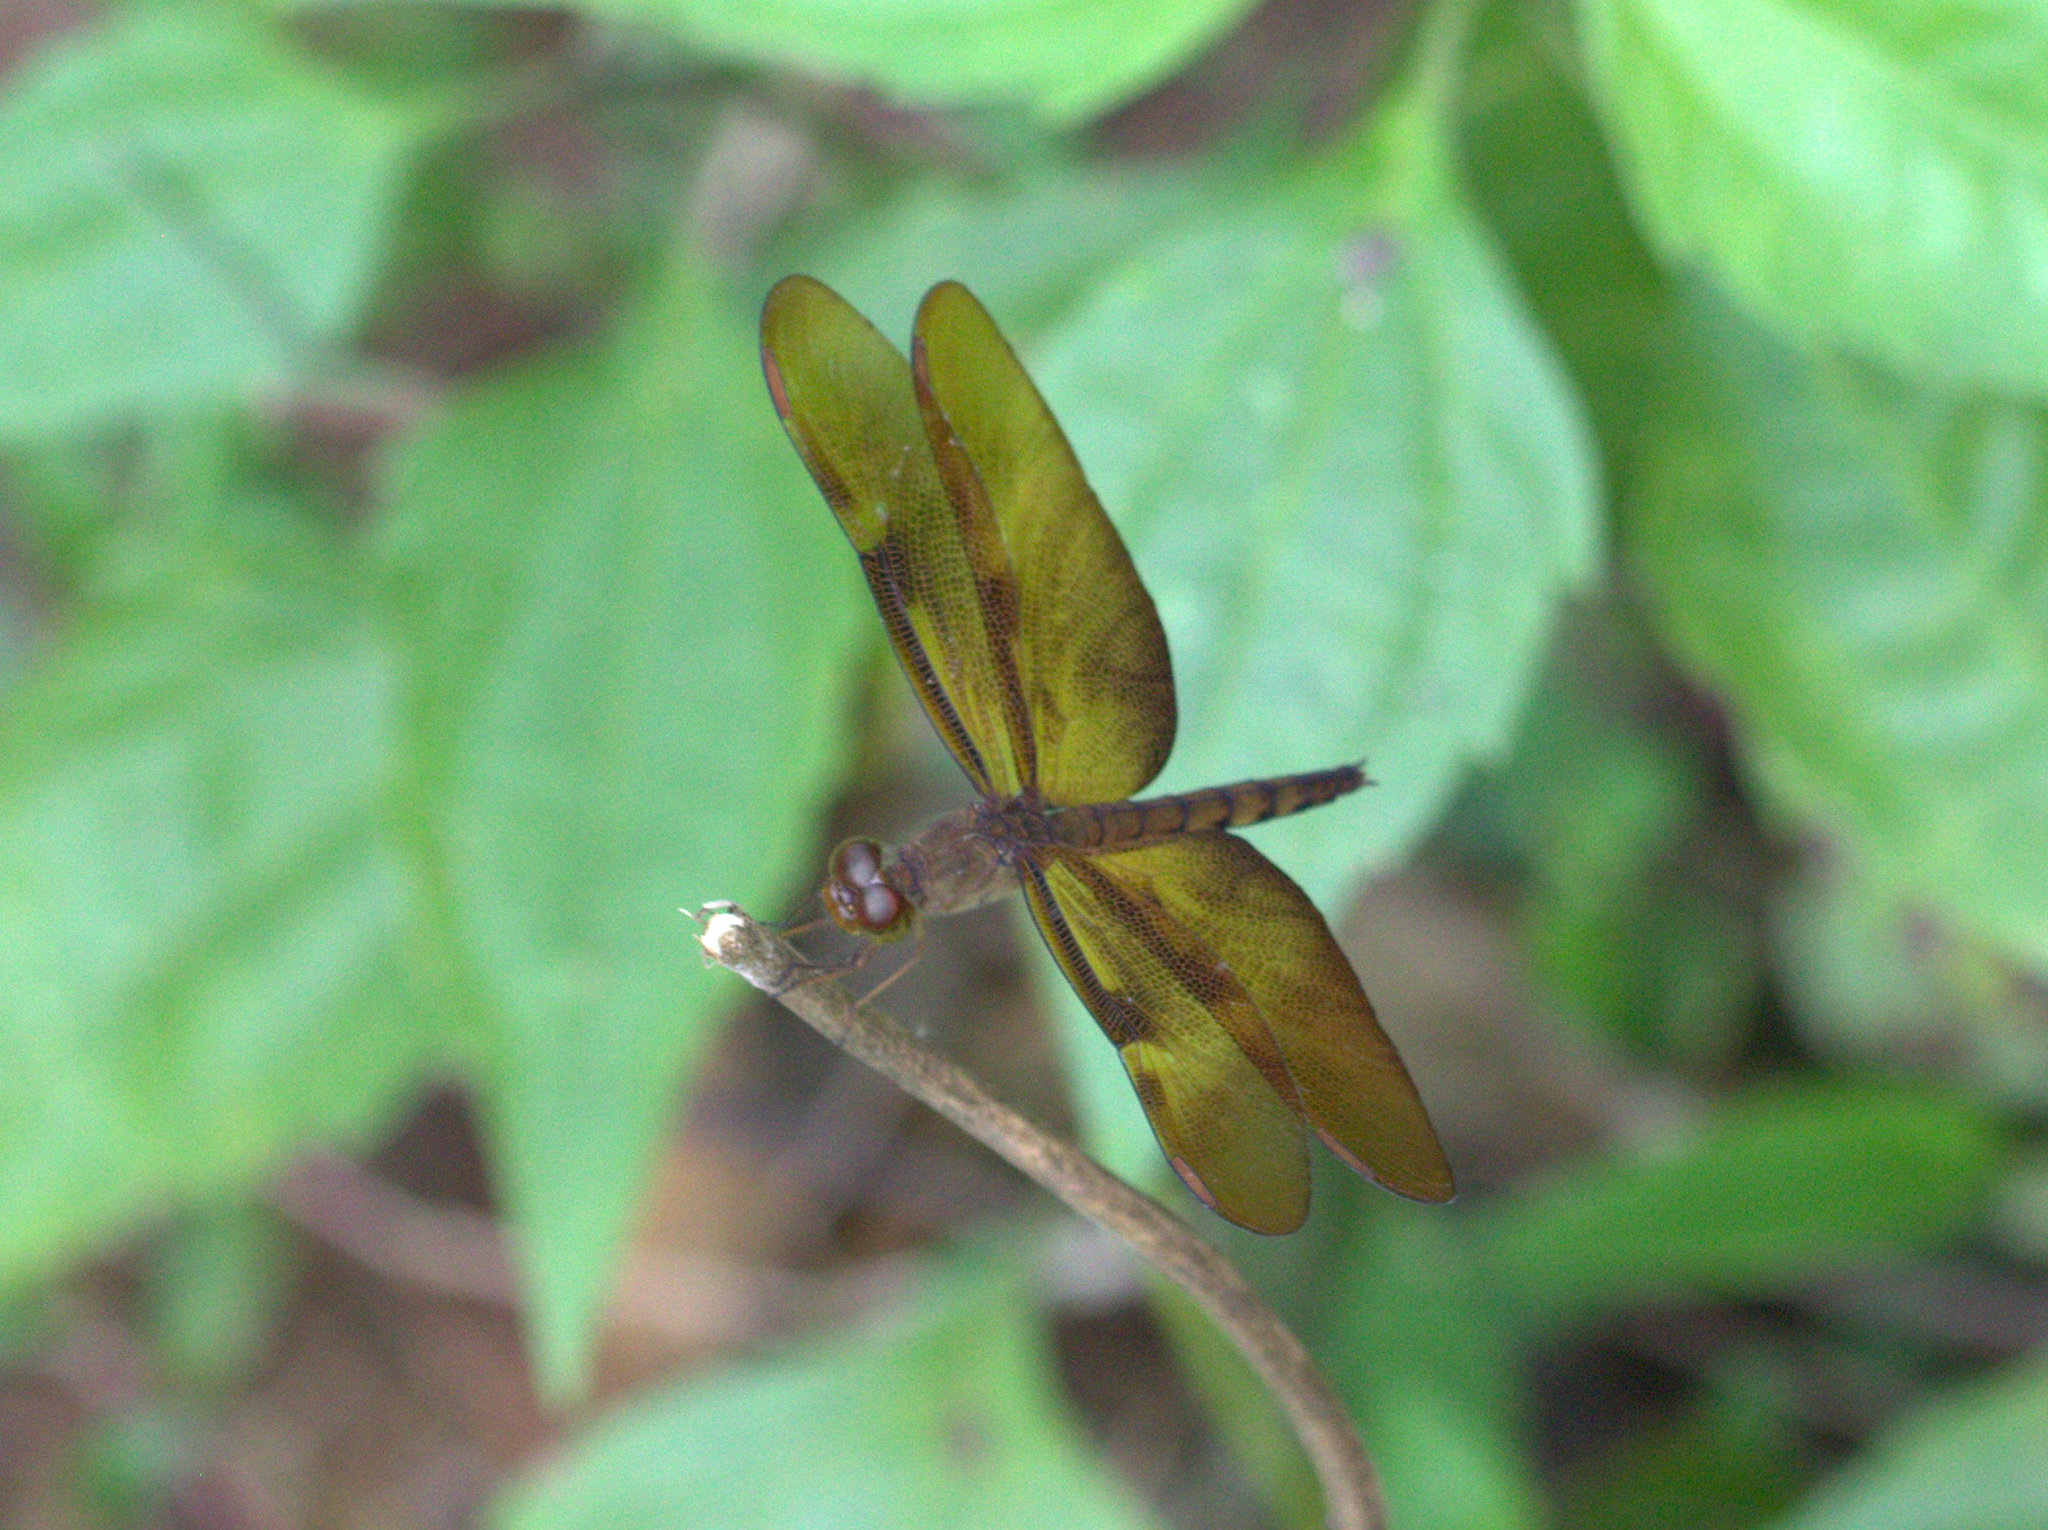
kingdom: Animalia
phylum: Arthropoda
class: Insecta
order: Odonata
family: Libellulidae
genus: Neurothemis
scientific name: Neurothemis fulvia
